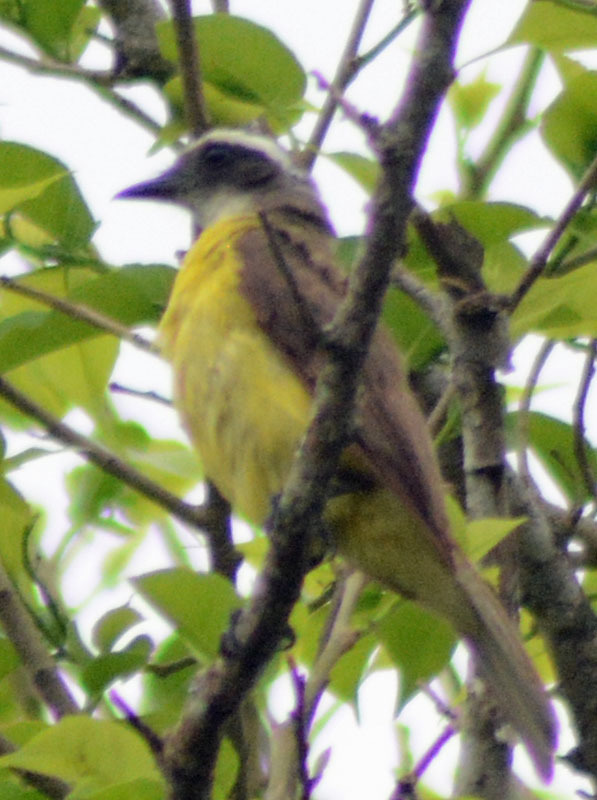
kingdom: Animalia
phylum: Chordata
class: Aves
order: Passeriformes
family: Tyrannidae
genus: Myiozetetes
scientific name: Myiozetetes similis
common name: Social flycatcher
